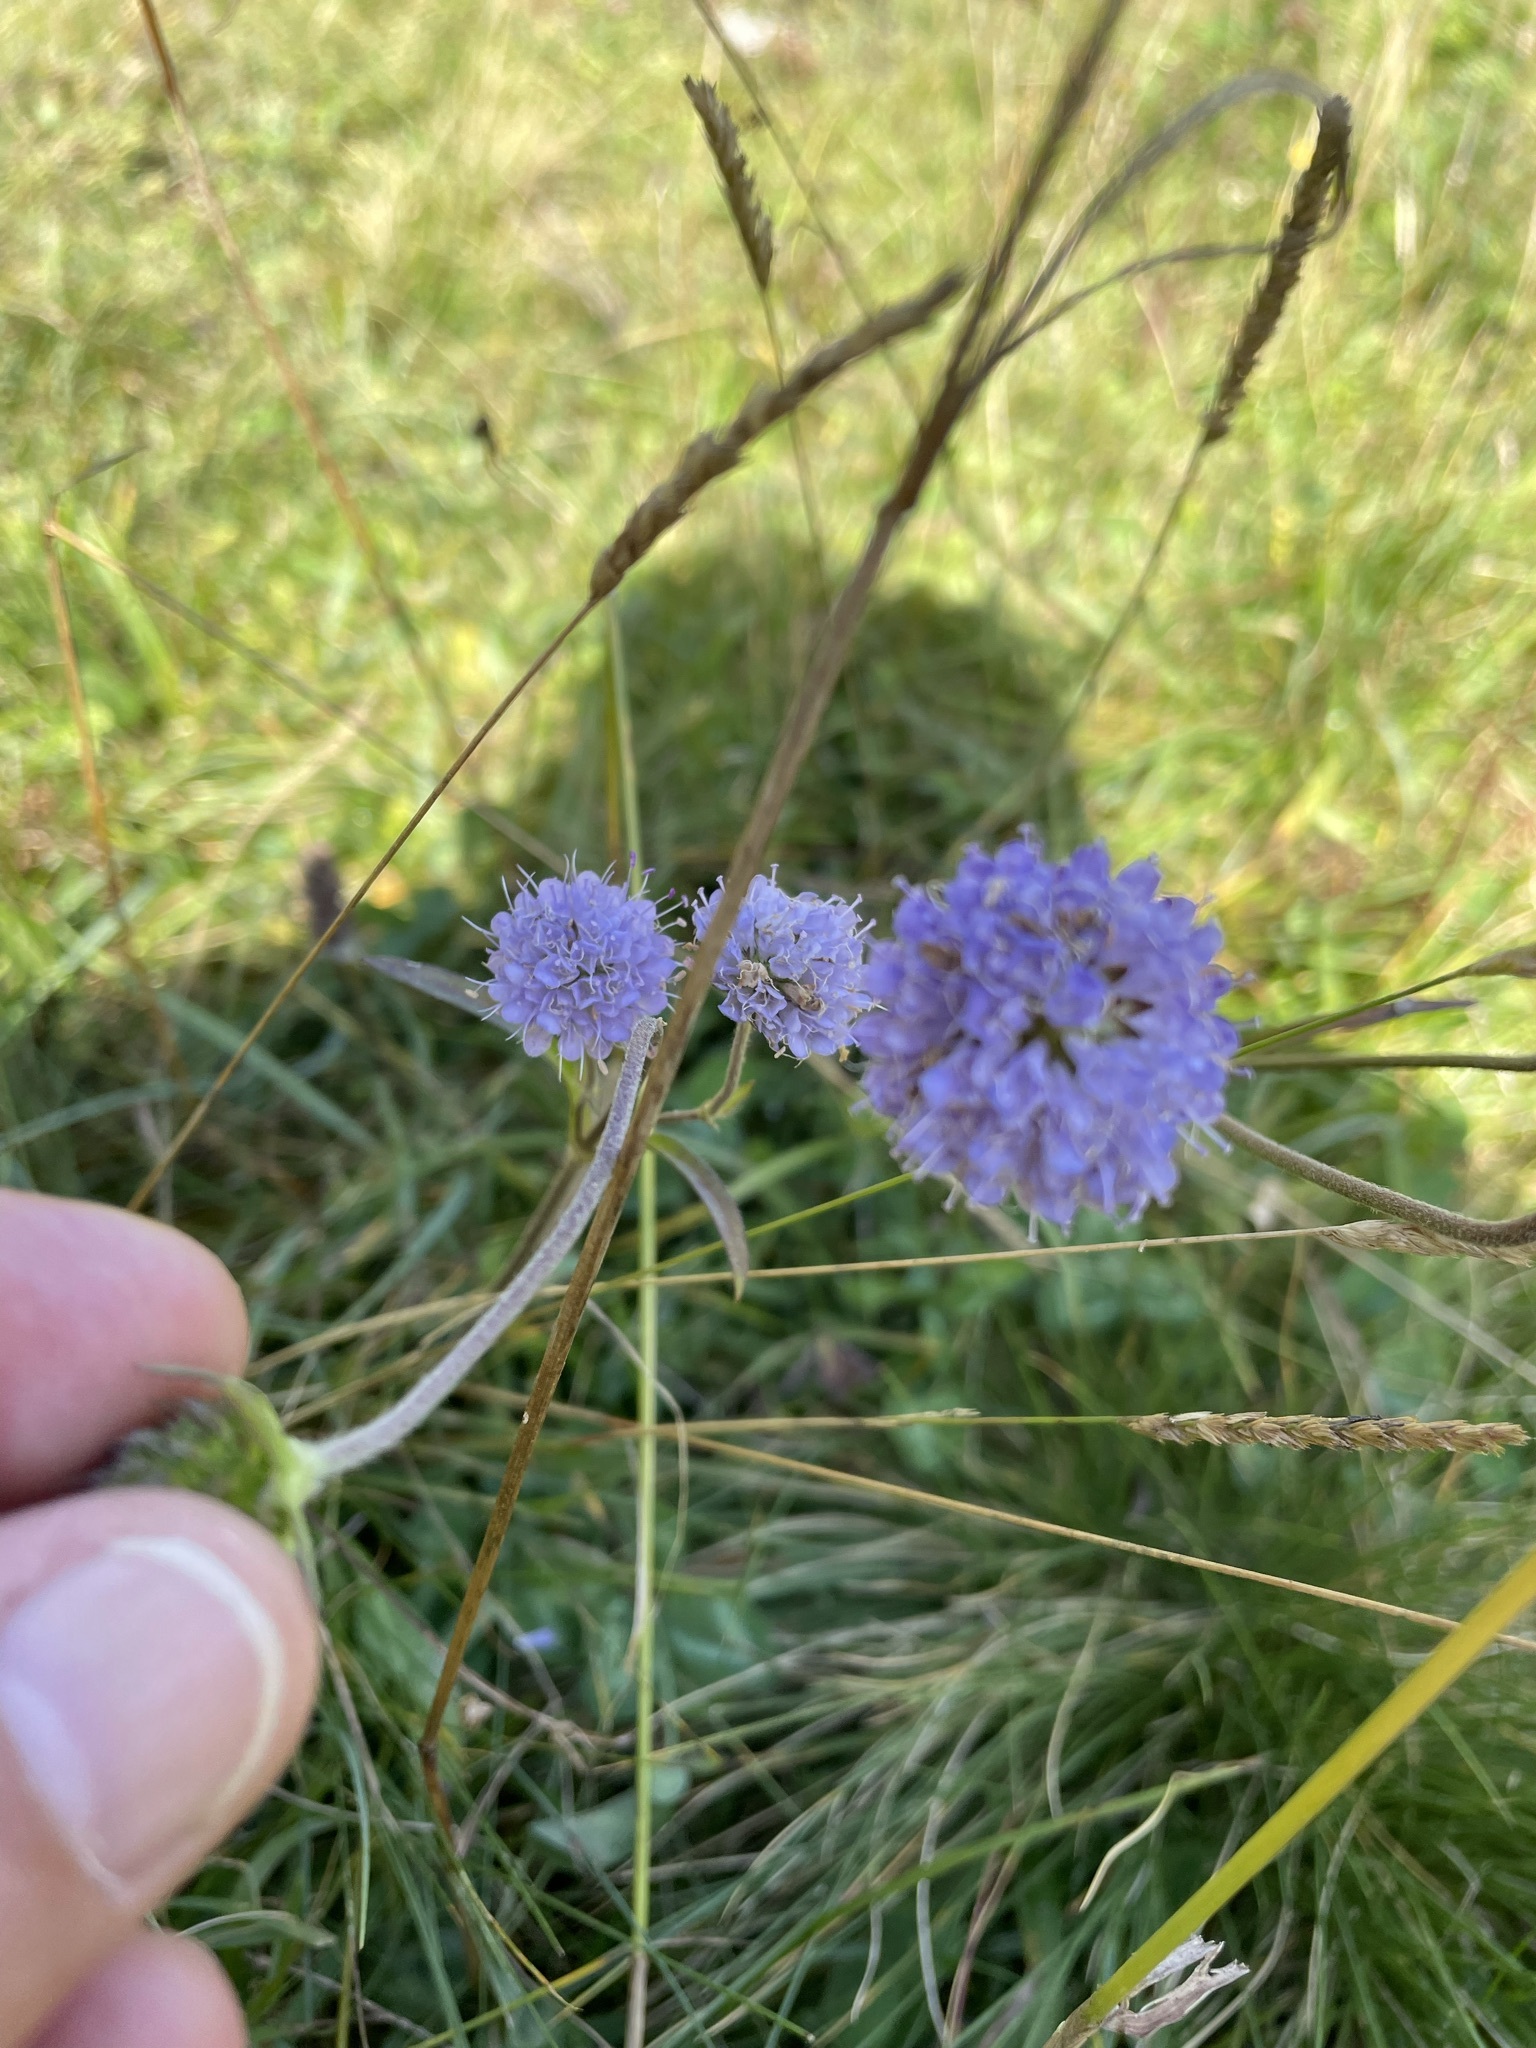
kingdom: Plantae
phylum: Tracheophyta
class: Magnoliopsida
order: Dipsacales
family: Caprifoliaceae
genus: Succisa
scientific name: Succisa pratensis
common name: Devil's-bit
